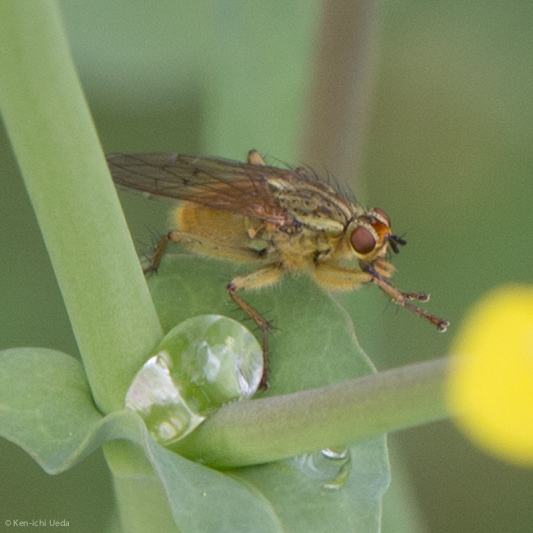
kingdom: Animalia
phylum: Arthropoda
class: Insecta
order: Diptera
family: Scathophagidae
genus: Scathophaga
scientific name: Scathophaga stercoraria
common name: Yellow dung fly
